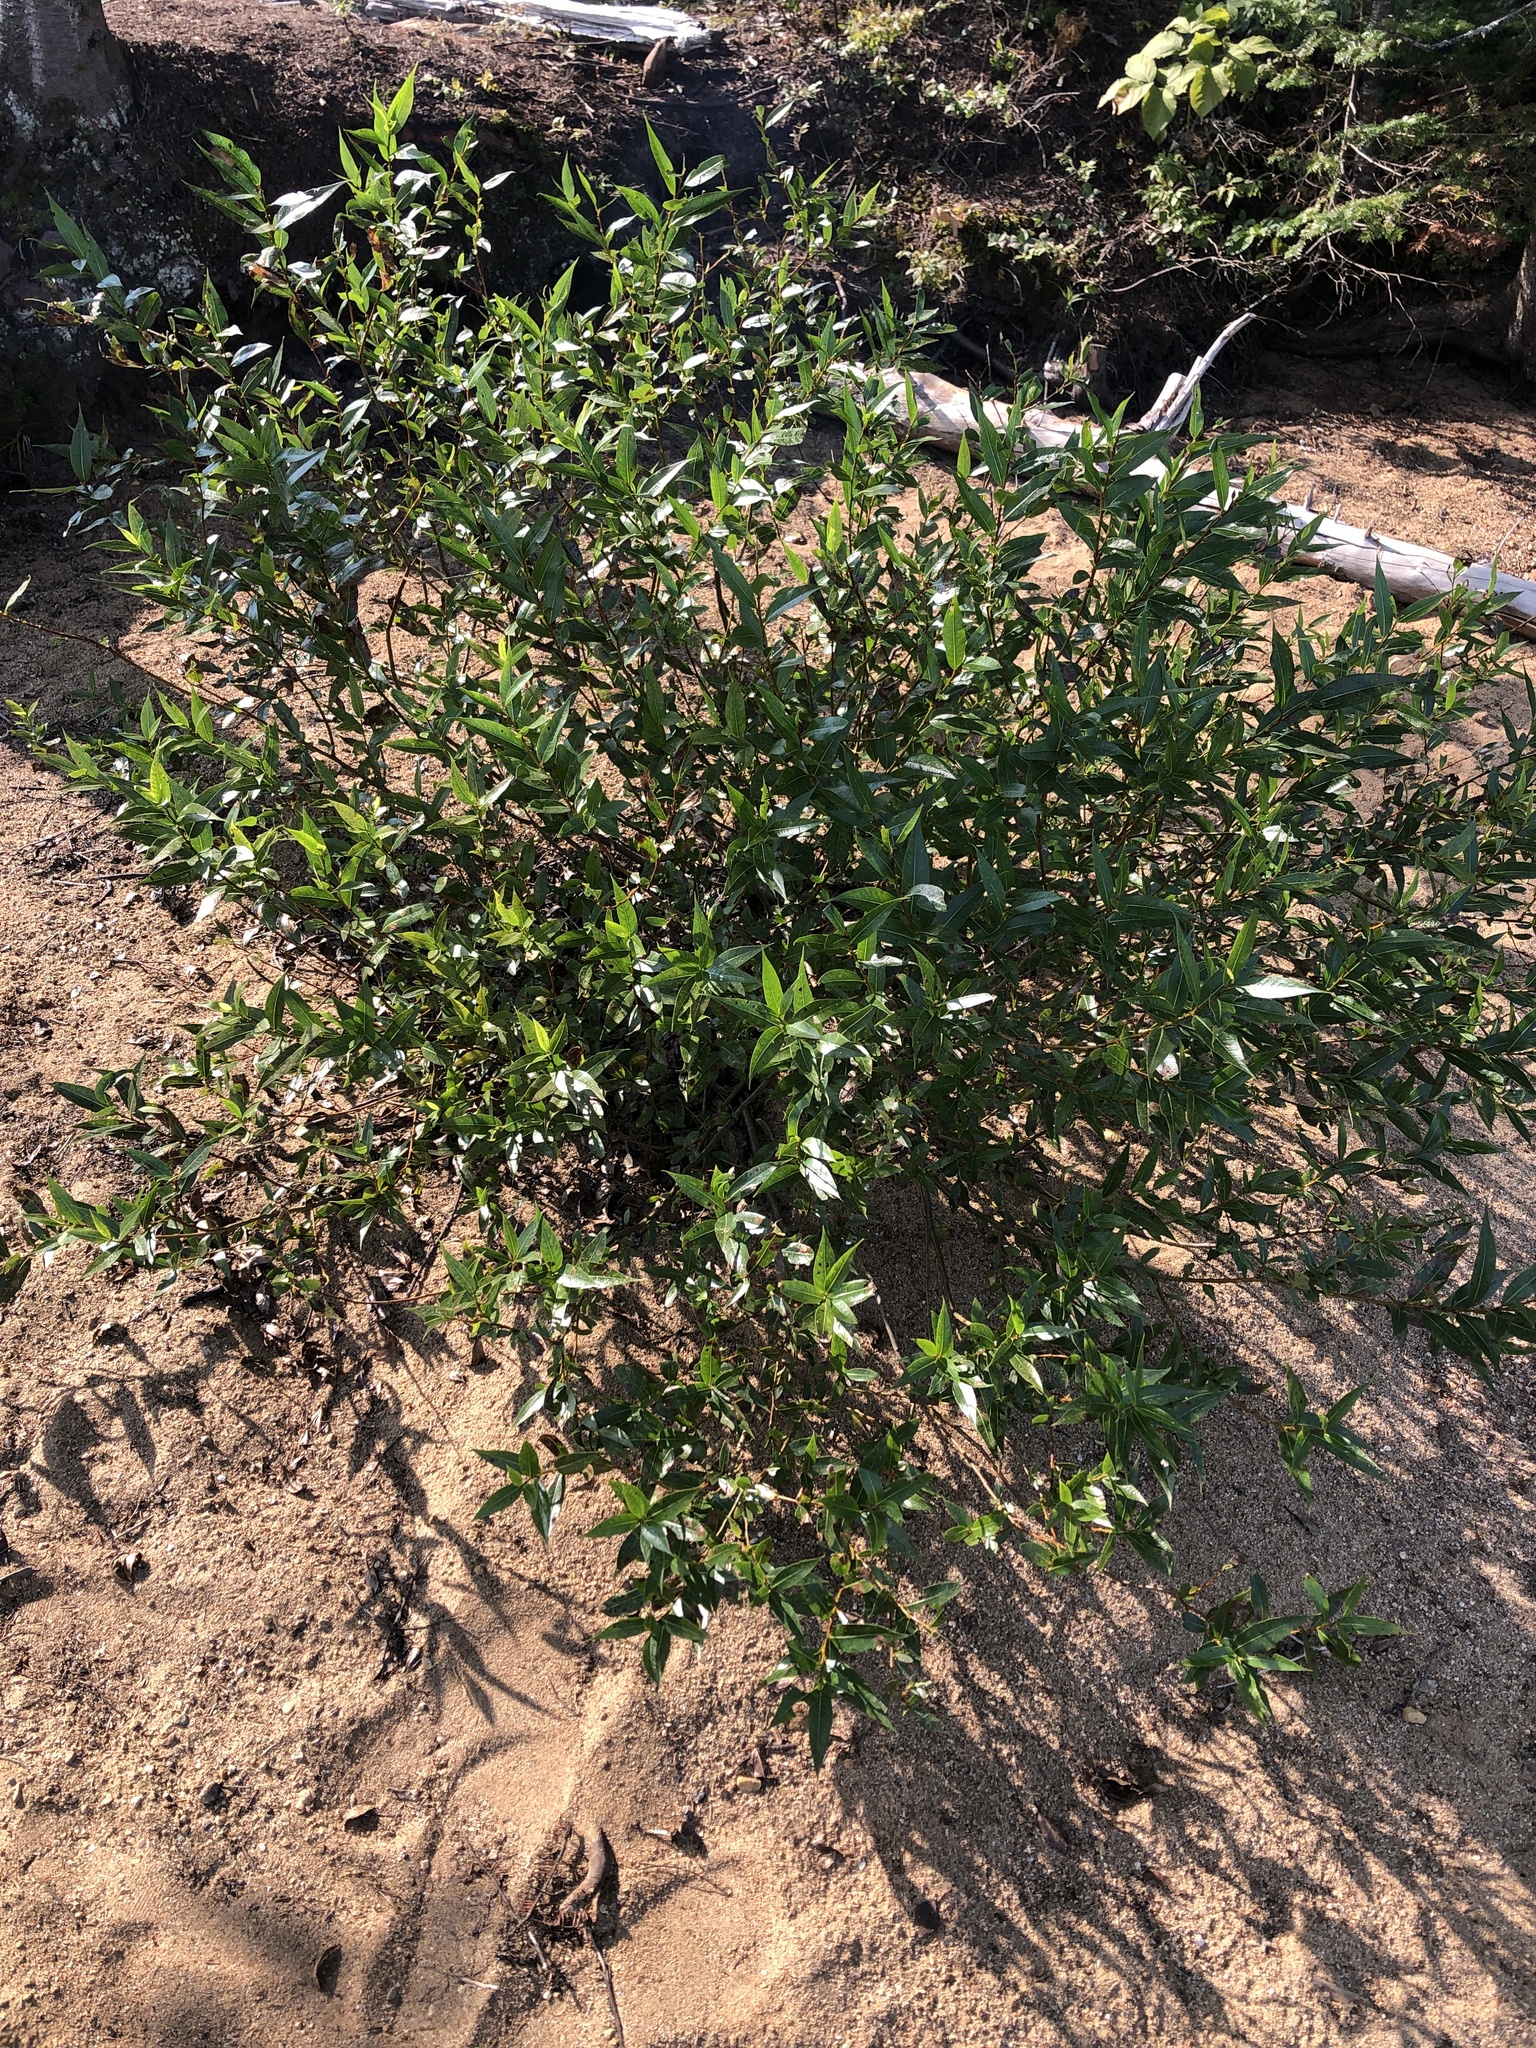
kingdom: Plantae
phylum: Tracheophyta
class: Magnoliopsida
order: Malpighiales
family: Salicaceae
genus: Salix
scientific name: Salix lucida
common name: Shining willow
